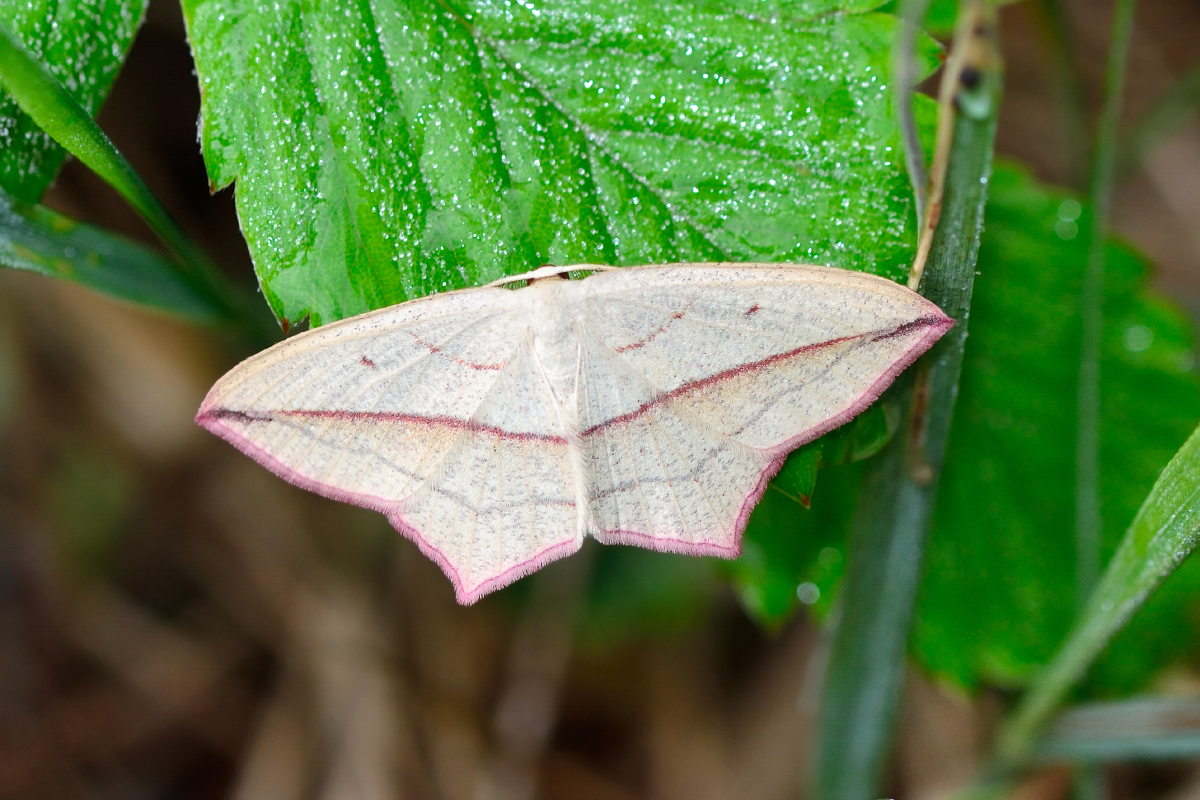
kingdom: Animalia
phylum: Arthropoda
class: Insecta
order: Lepidoptera
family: Geometridae
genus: Timandra
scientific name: Timandra comae
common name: Blood-vein
